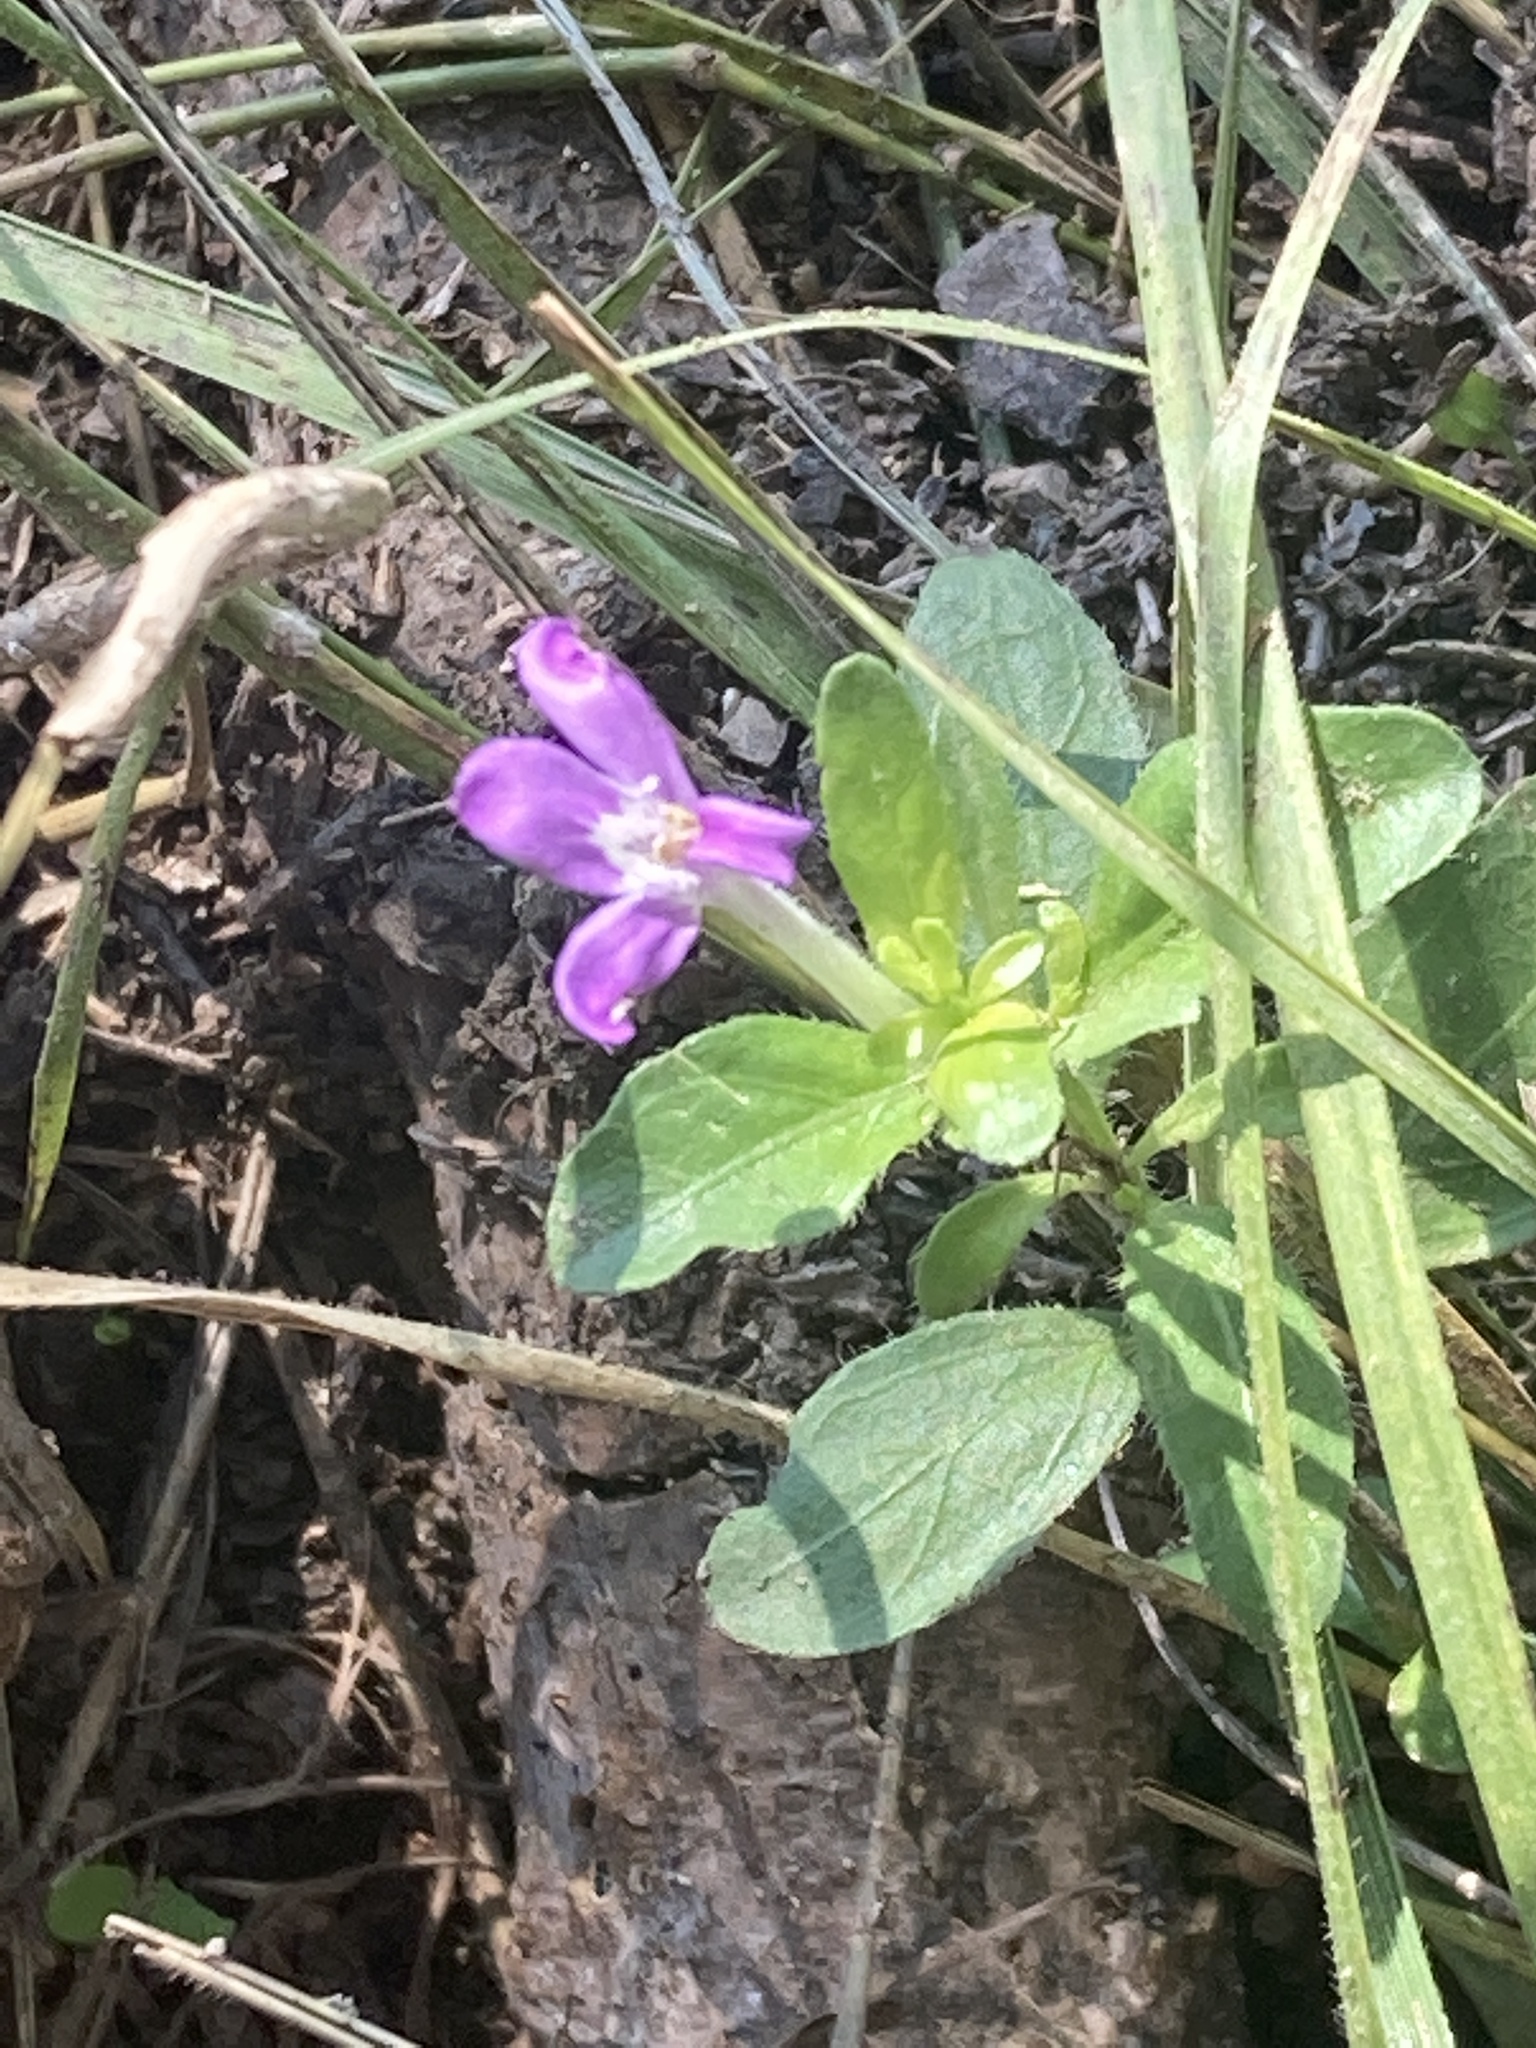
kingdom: Plantae
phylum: Tracheophyta
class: Magnoliopsida
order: Lamiales
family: Acanthaceae
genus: Justicia
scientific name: Justicia pilosella
